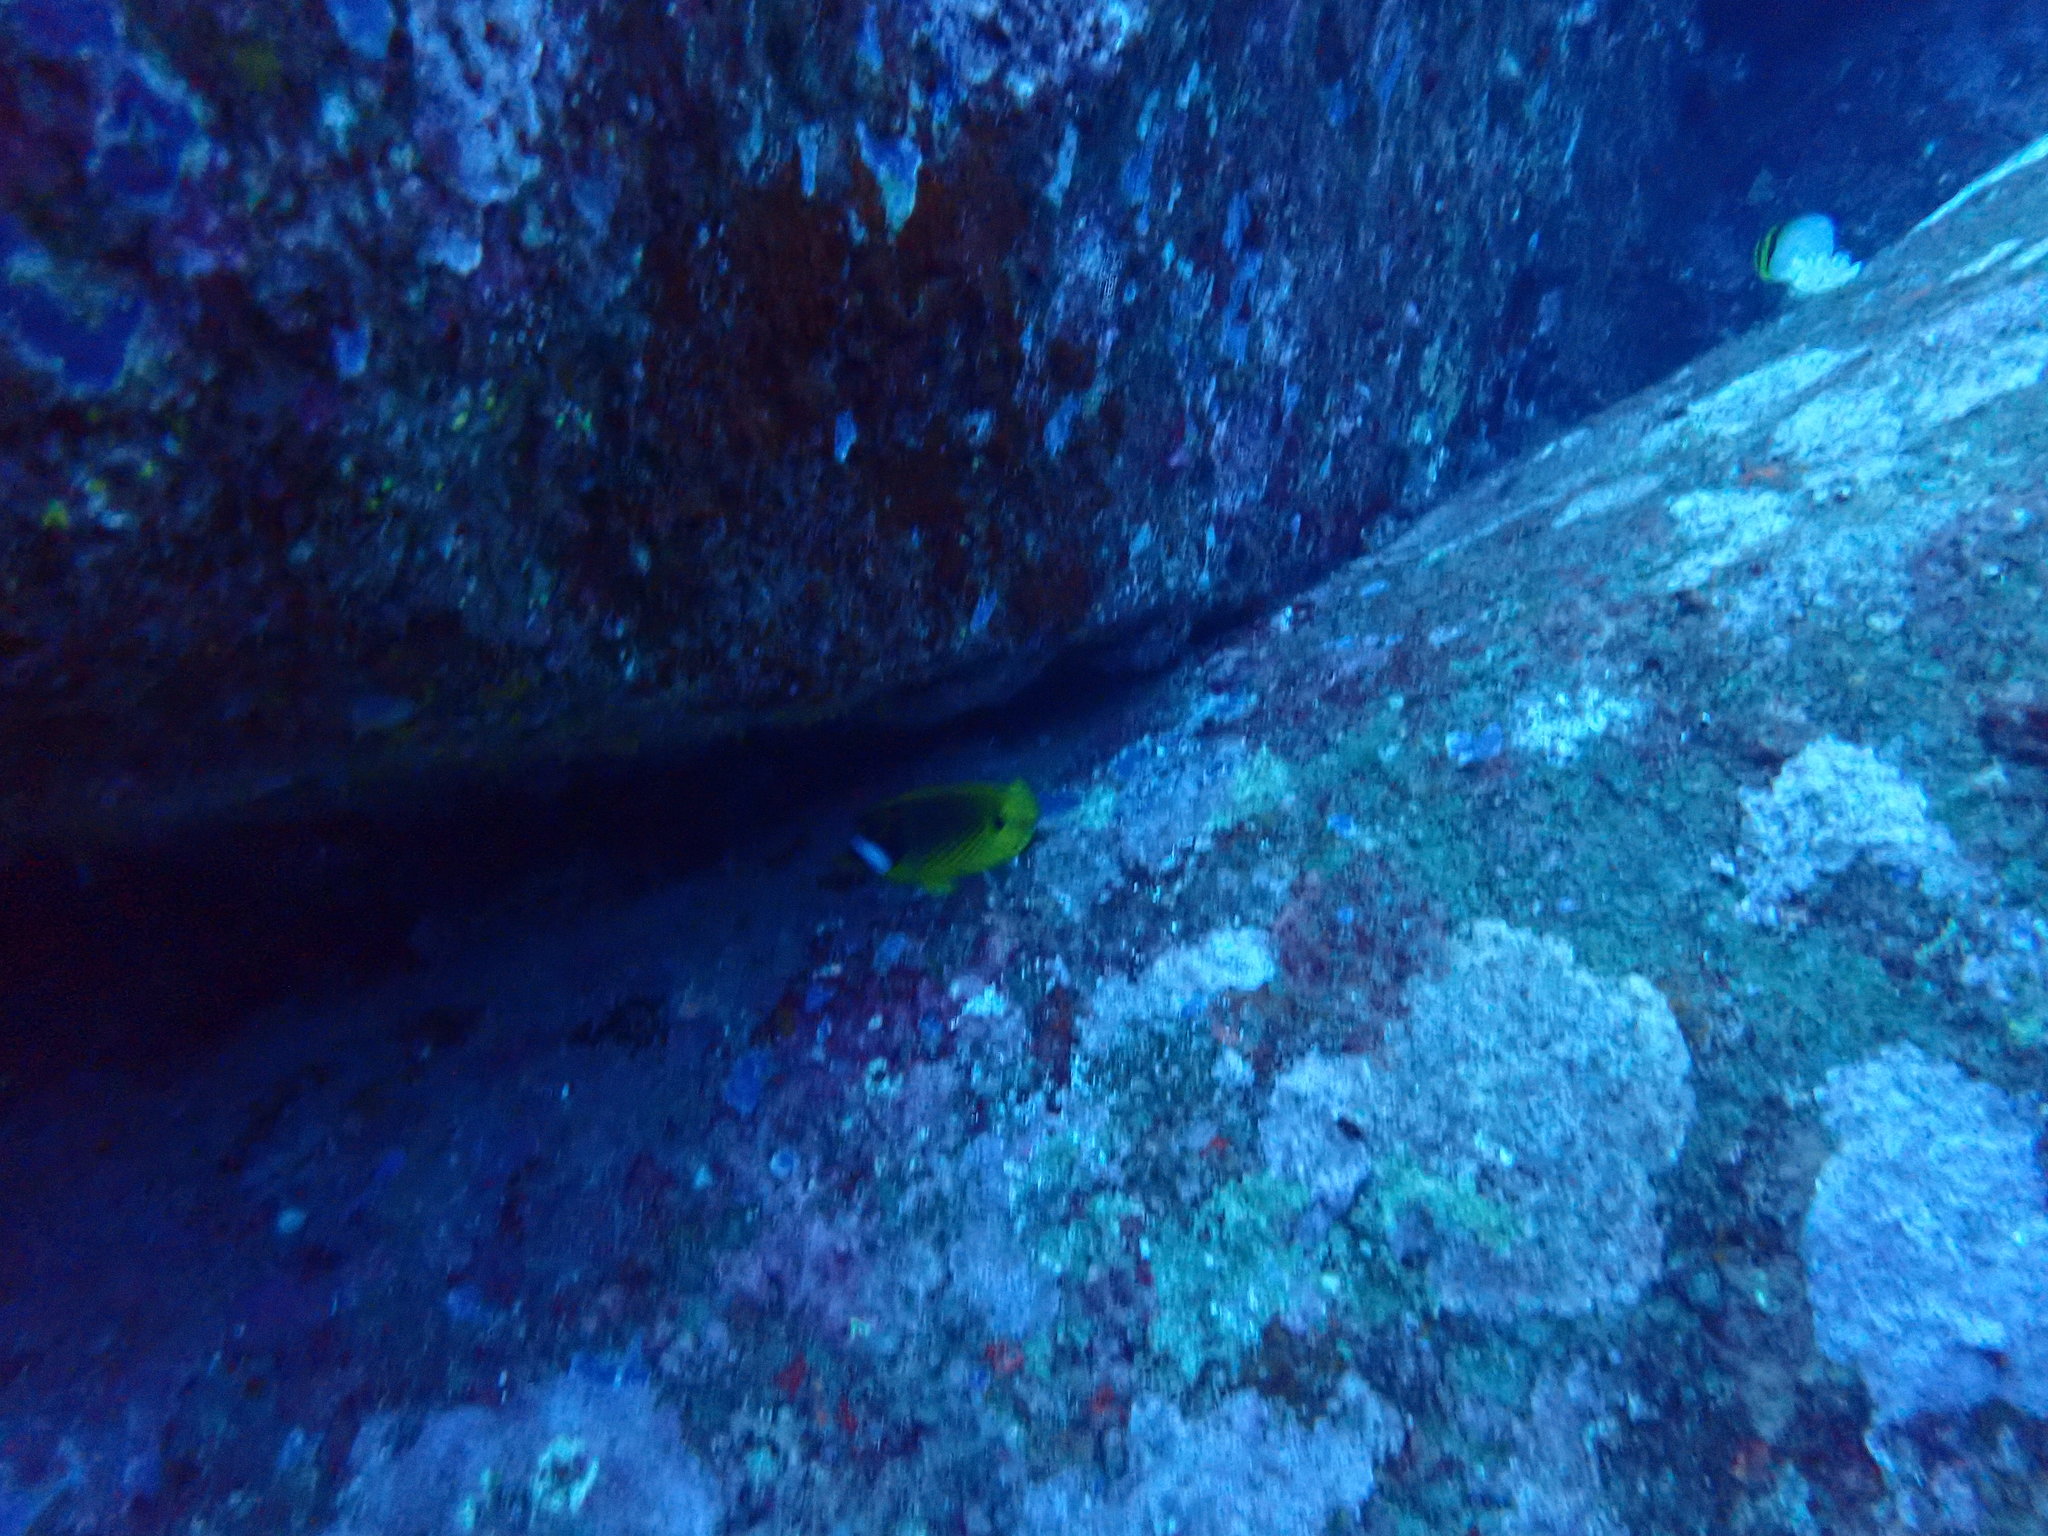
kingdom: Animalia
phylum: Chordata
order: Perciformes
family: Chaetodontidae
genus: Chaetodon
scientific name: Chaetodon lunula
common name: Raccoon butterflyfish
